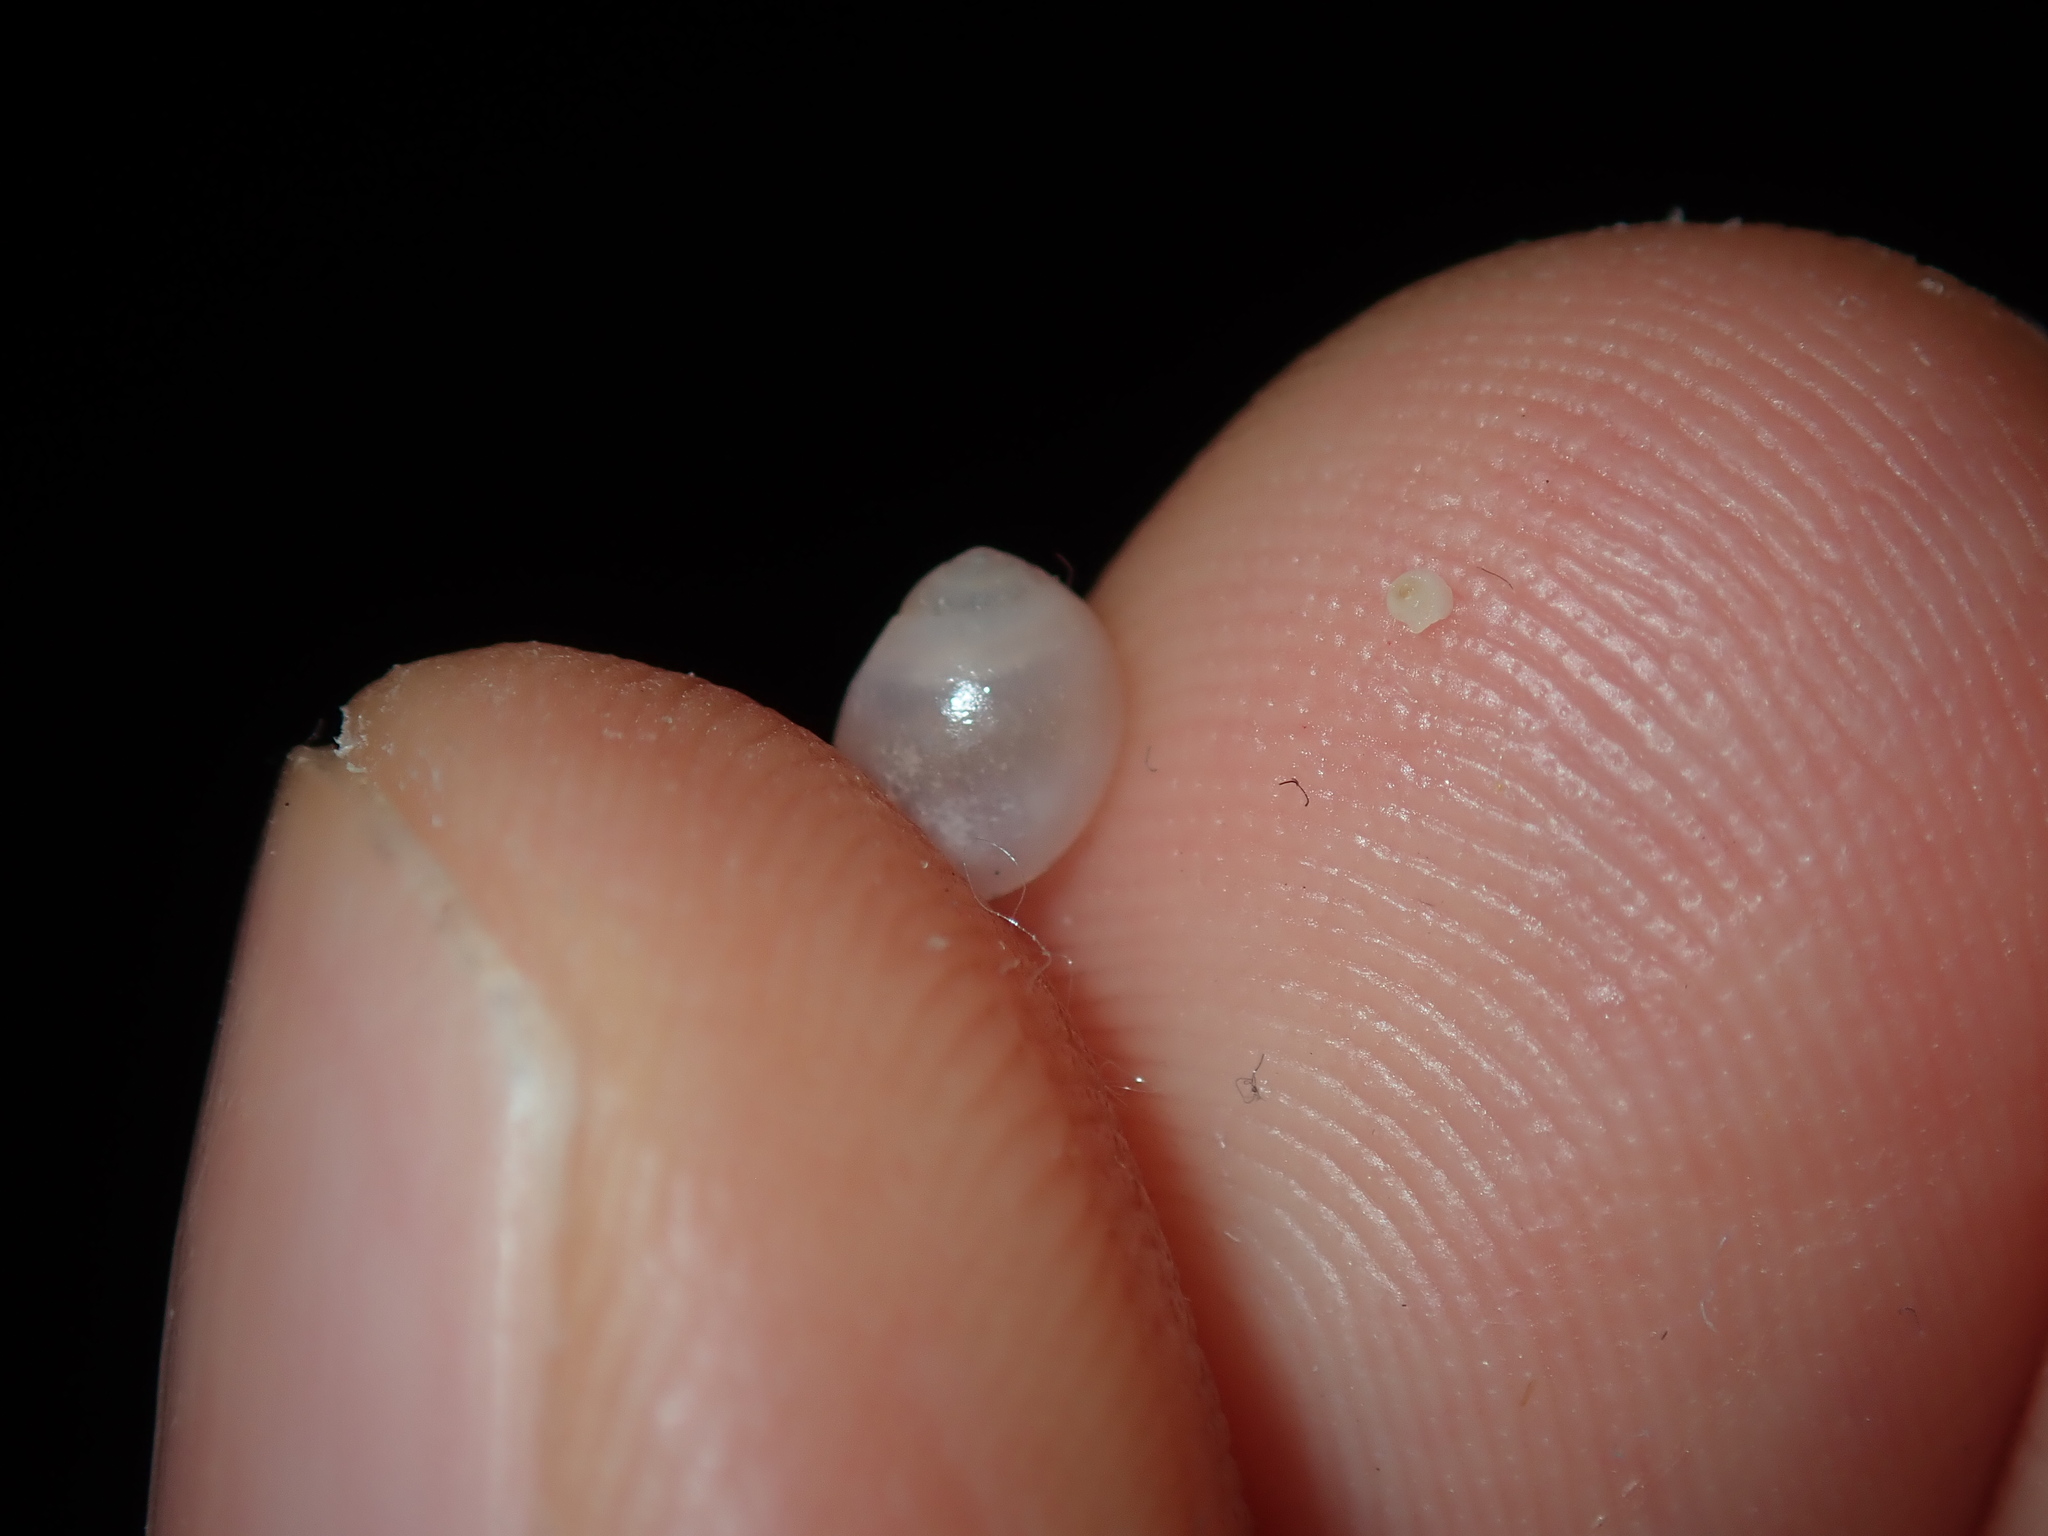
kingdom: Animalia
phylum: Mollusca
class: Gastropoda
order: Ellobiida
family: Ellobiidae
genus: Marinula
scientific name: Marinula xanthostoma
